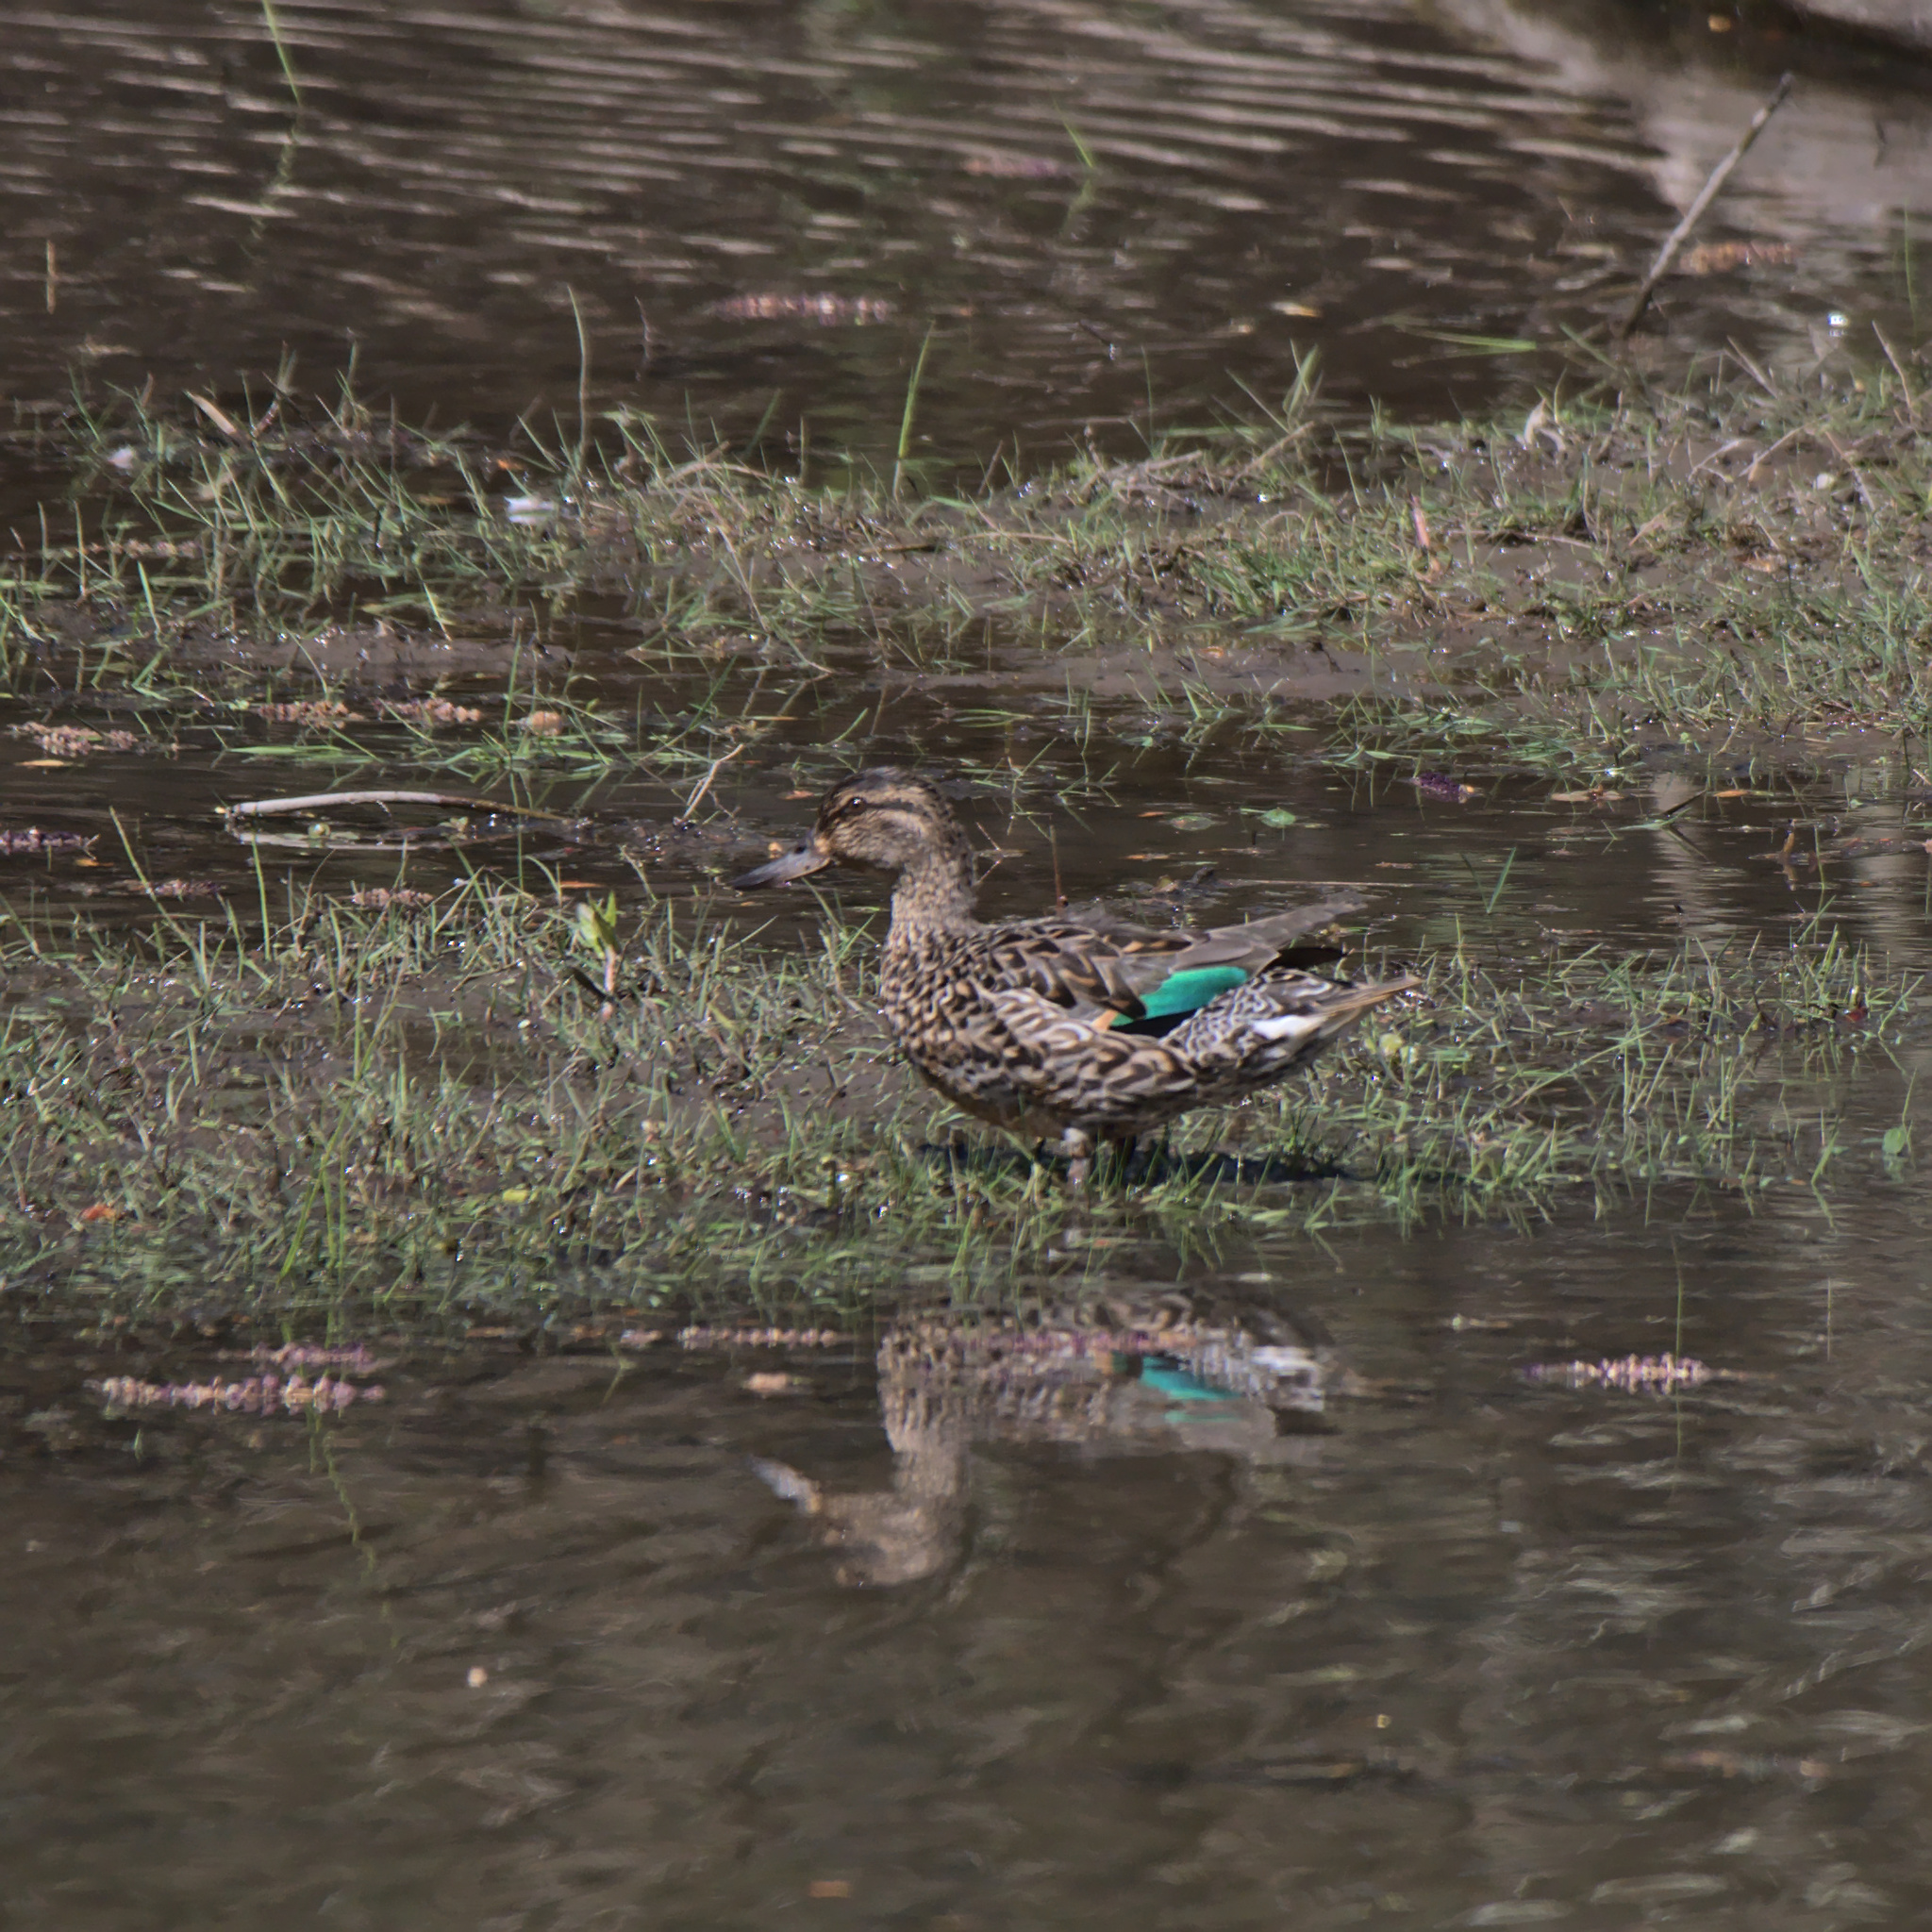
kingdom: Animalia
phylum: Chordata
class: Aves
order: Anseriformes
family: Anatidae
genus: Anas
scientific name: Anas crecca
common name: Eurasian teal
